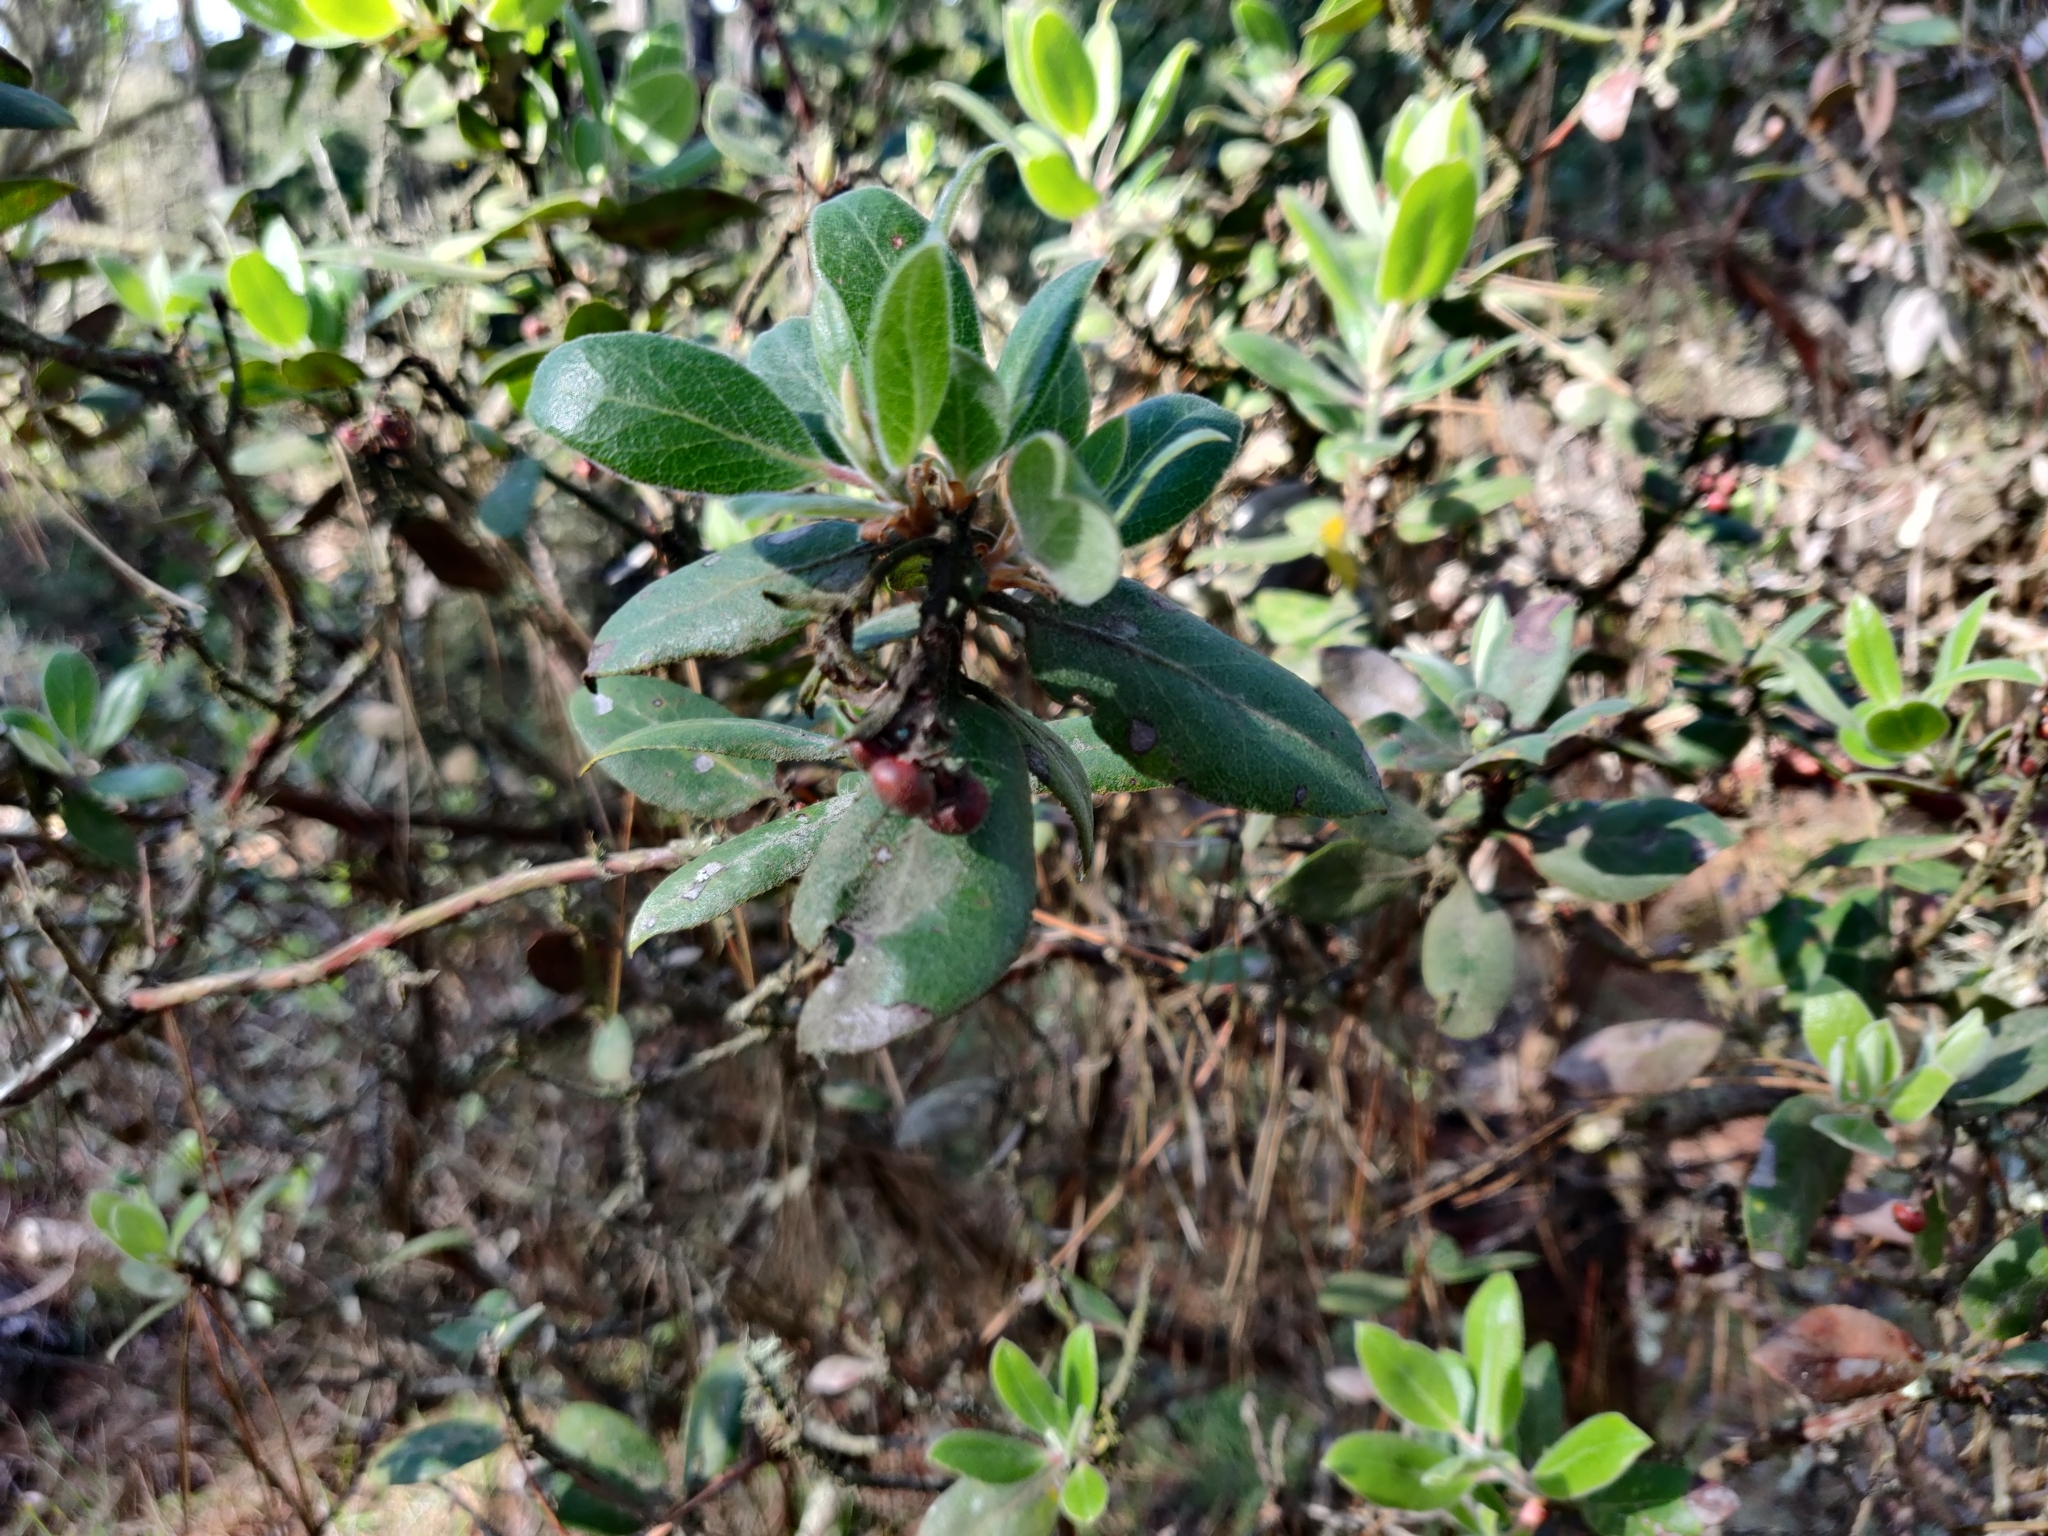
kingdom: Plantae
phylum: Tracheophyta
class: Magnoliopsida
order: Ericales
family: Ericaceae
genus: Arctostaphylos
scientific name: Arctostaphylos tomentosa
